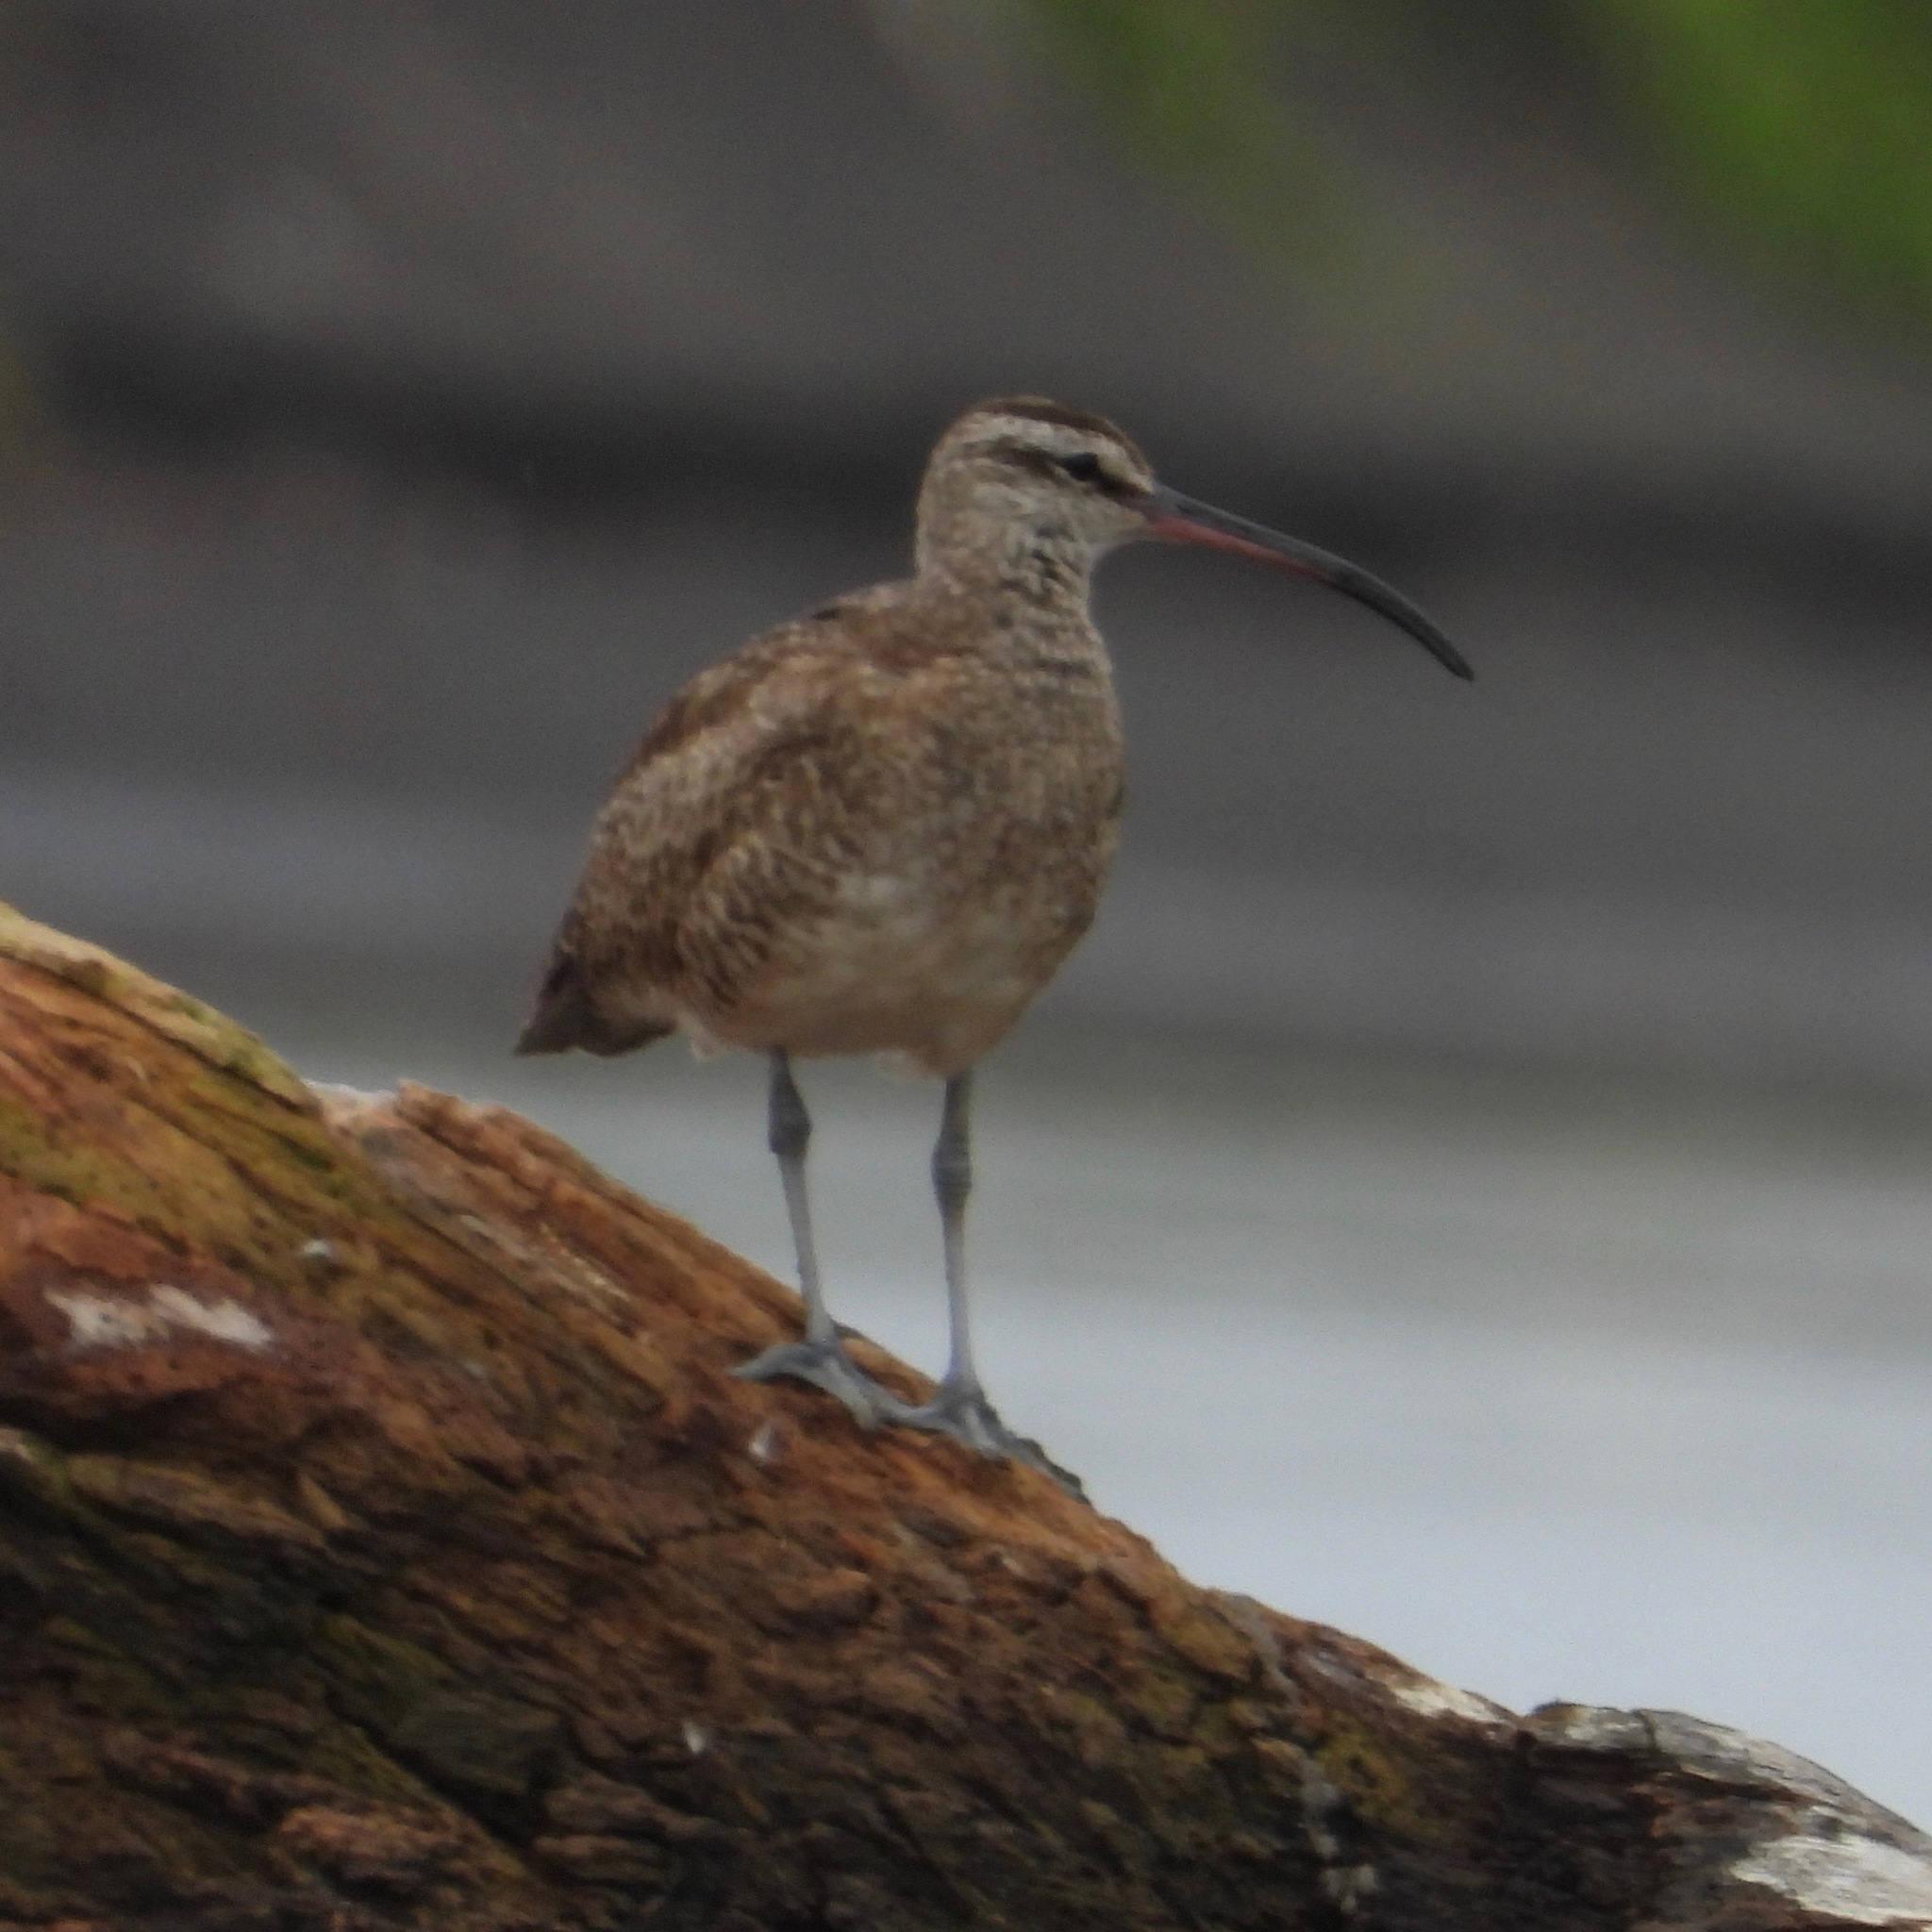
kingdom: Animalia
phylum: Chordata
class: Aves
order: Charadriiformes
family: Scolopacidae
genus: Numenius
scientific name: Numenius phaeopus
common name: Whimbrel
